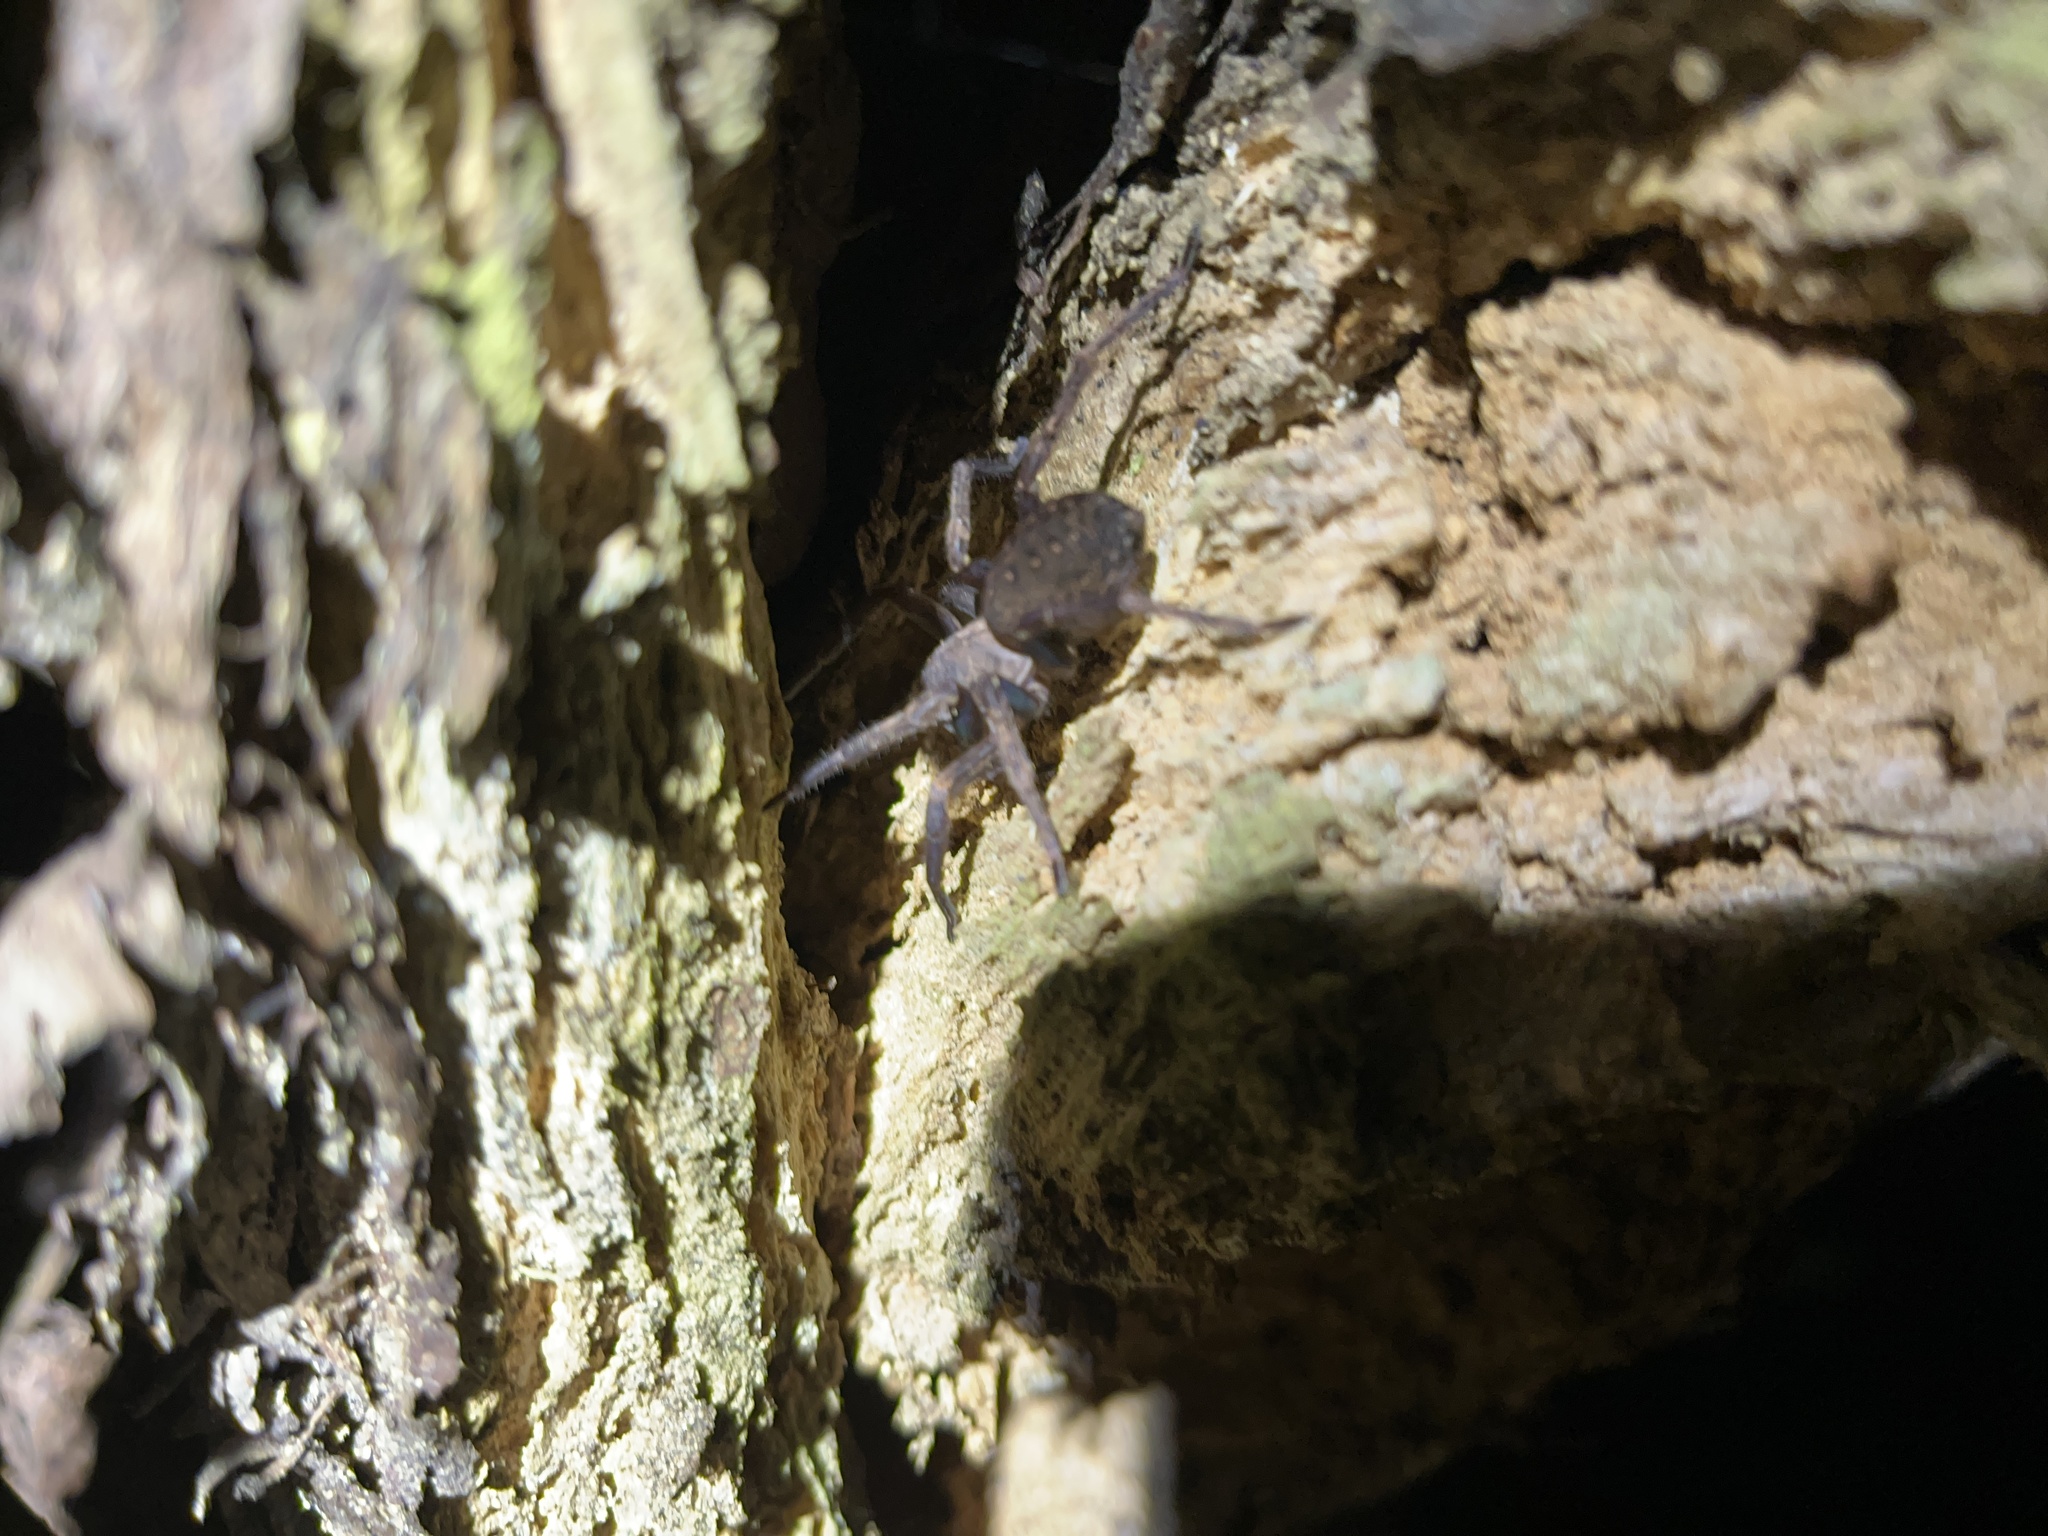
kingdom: Animalia
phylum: Arthropoda
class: Arachnida
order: Araneae
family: Zoropsidae
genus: Uliodon
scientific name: Uliodon albopunctatus
